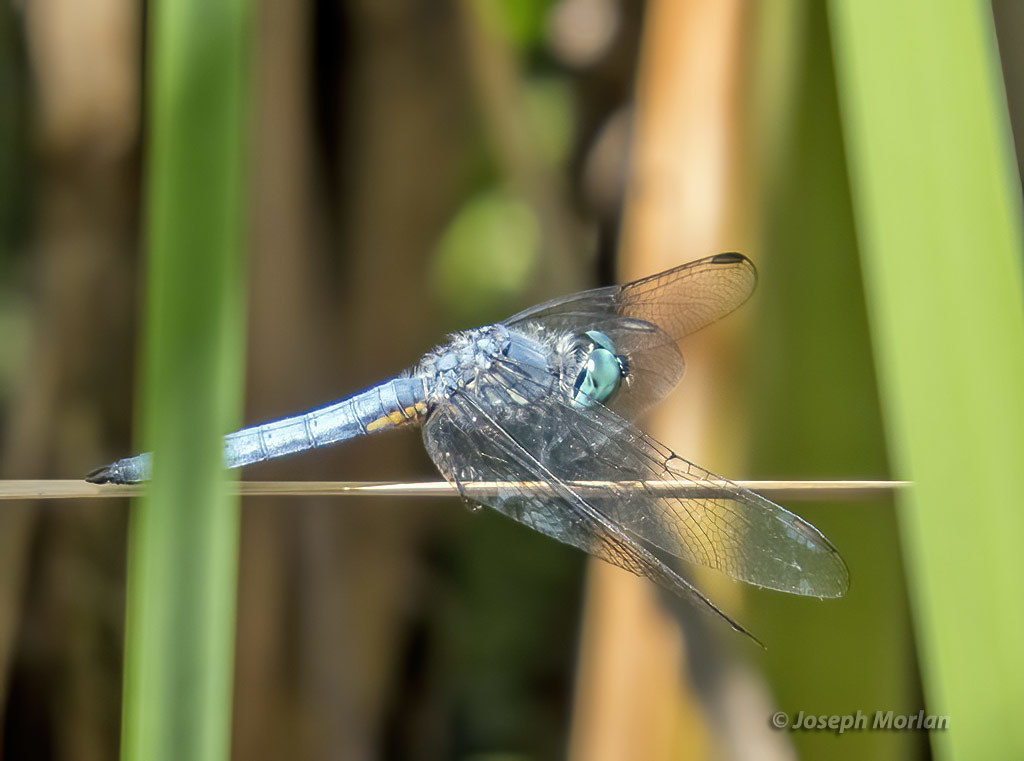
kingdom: Animalia
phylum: Arthropoda
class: Insecta
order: Odonata
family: Libellulidae
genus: Pachydiplax
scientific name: Pachydiplax longipennis
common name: Blue dasher
